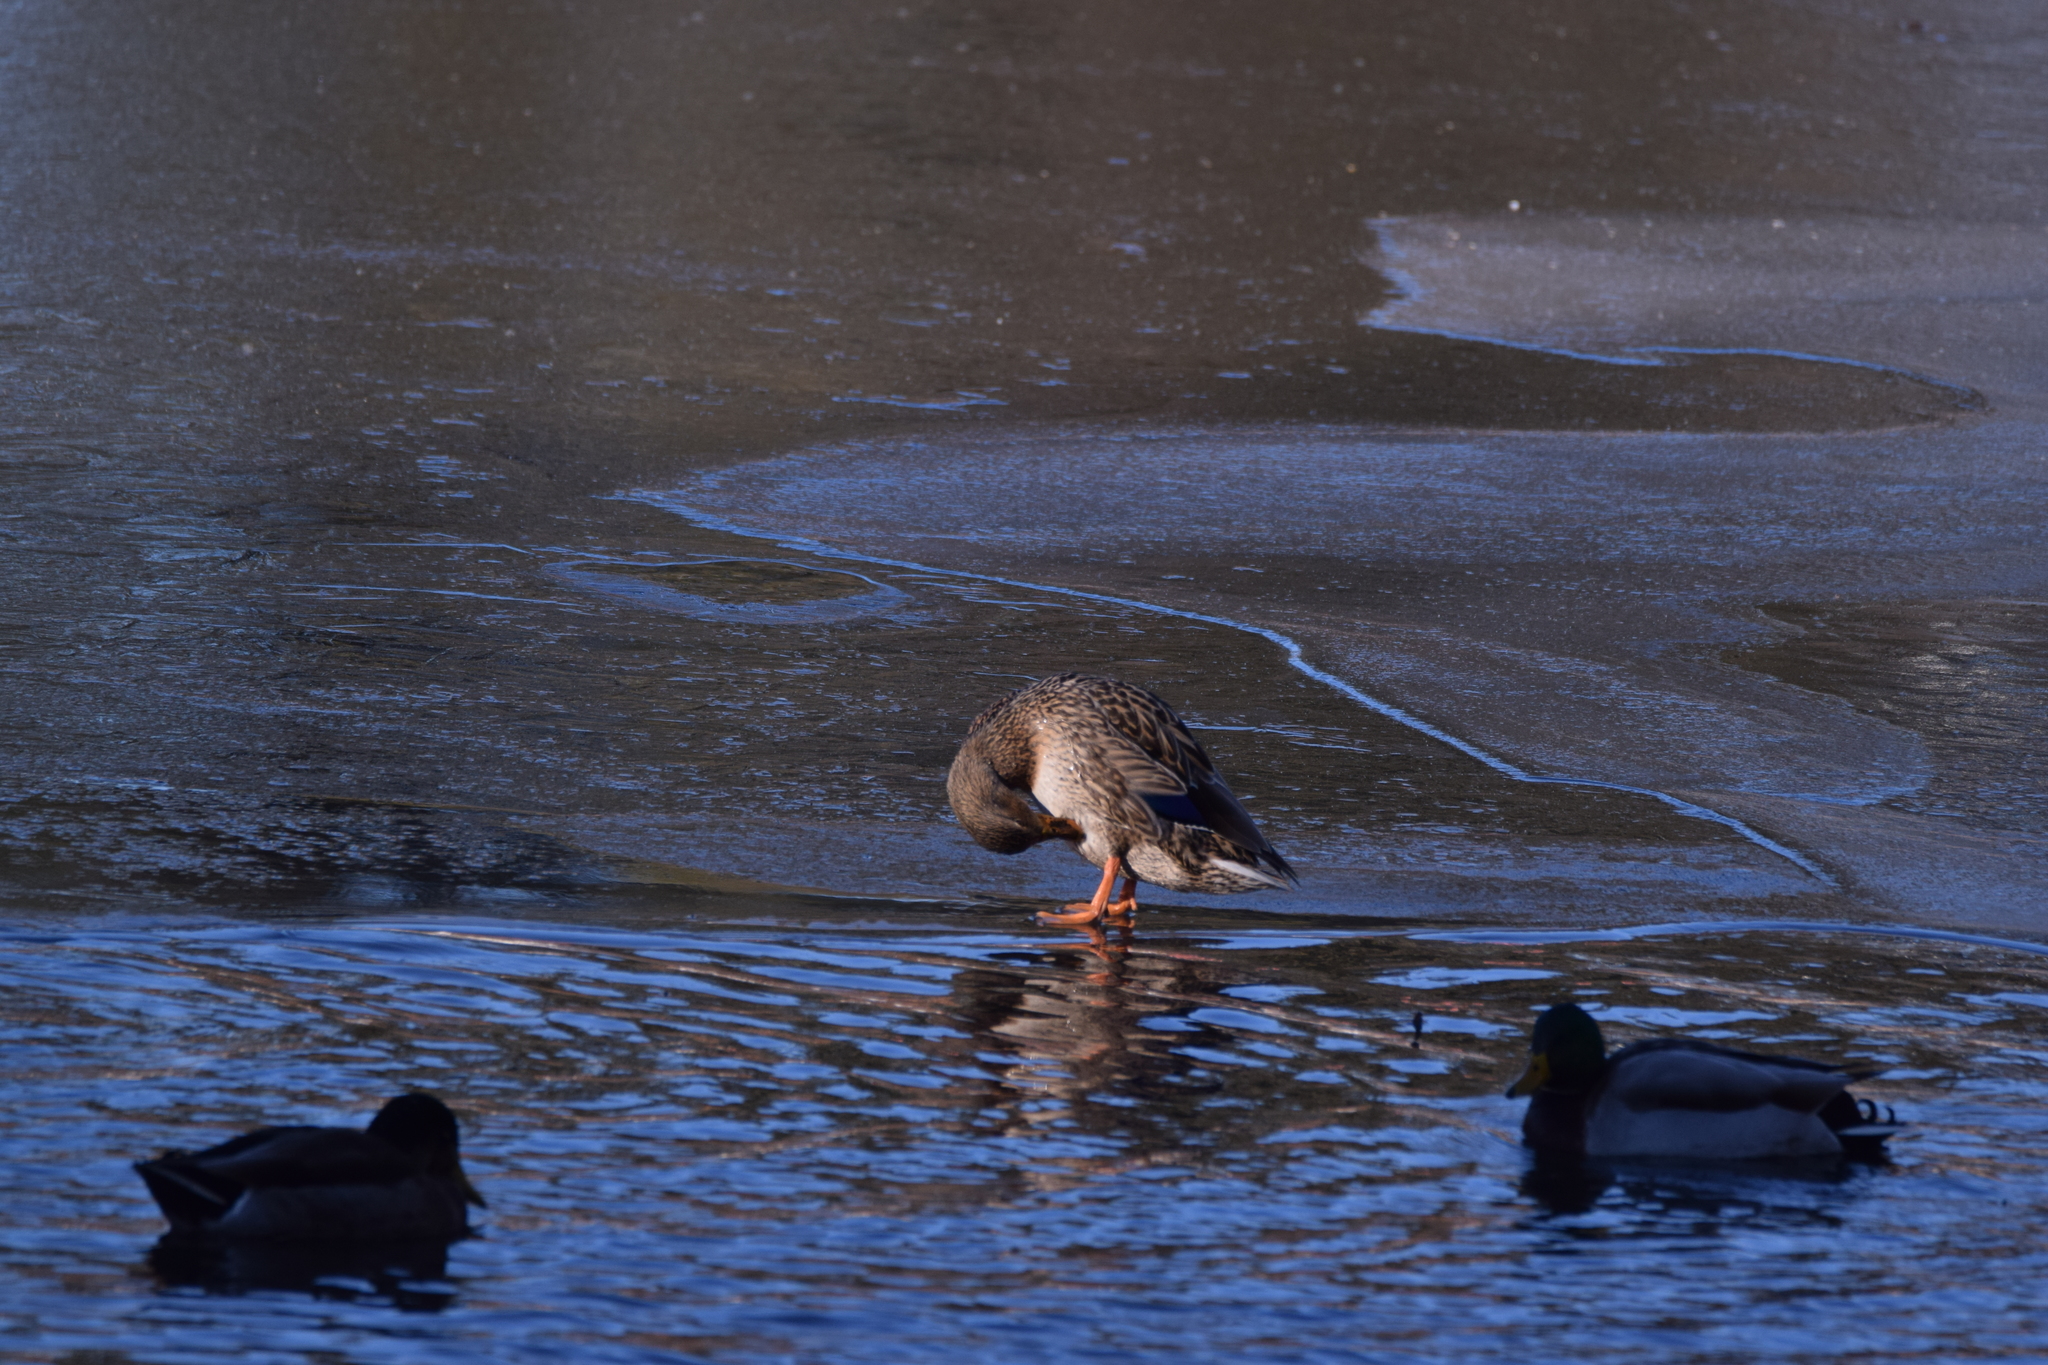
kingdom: Animalia
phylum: Chordata
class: Aves
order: Anseriformes
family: Anatidae
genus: Anas
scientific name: Anas platyrhynchos
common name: Mallard
